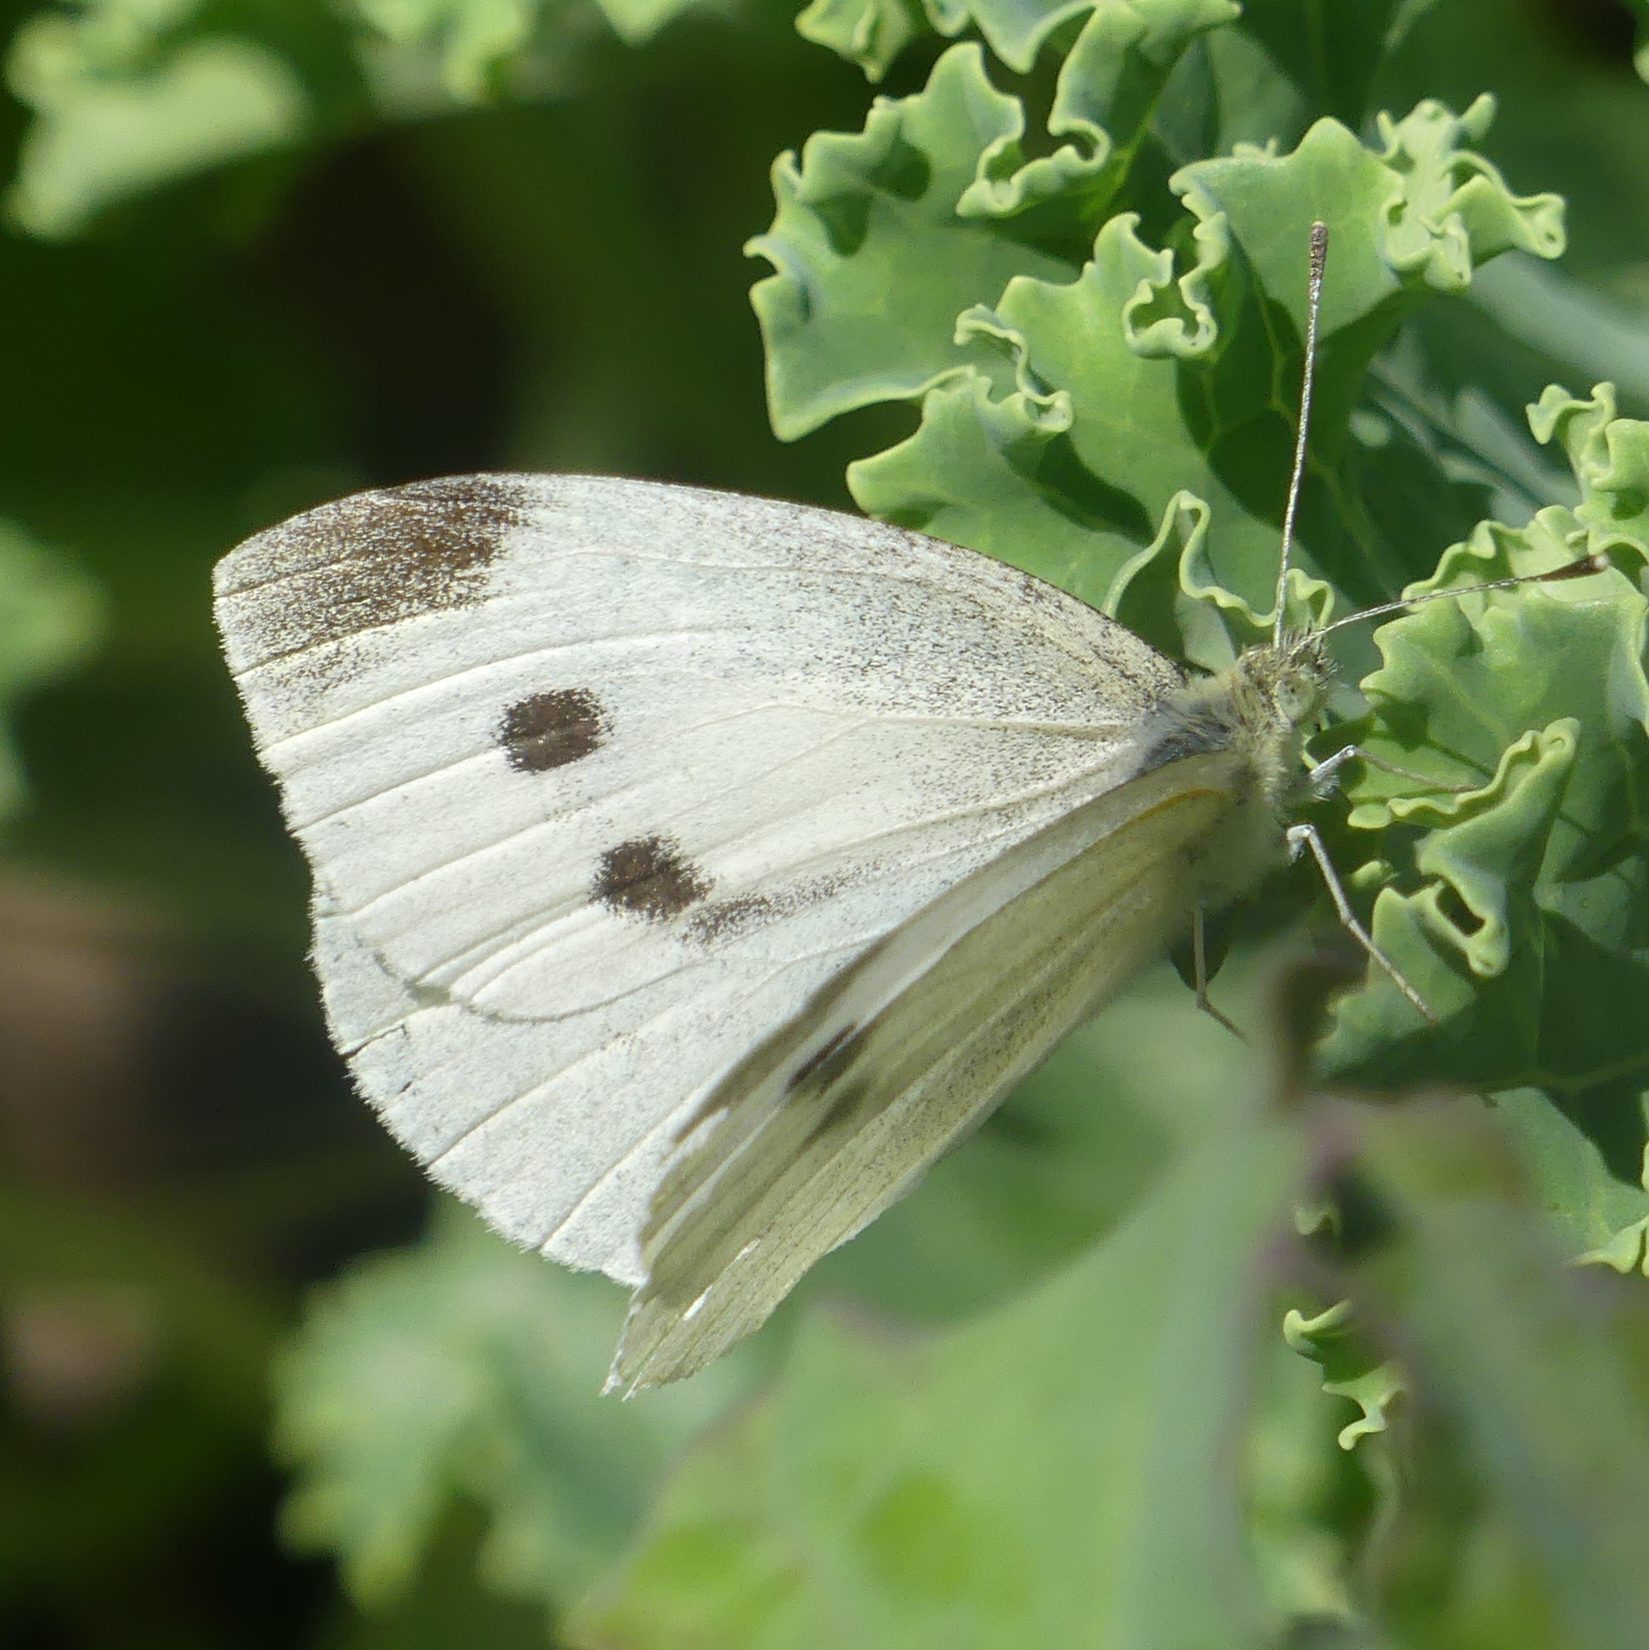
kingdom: Animalia
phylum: Arthropoda
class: Insecta
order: Lepidoptera
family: Pieridae
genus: Pieris
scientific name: Pieris rapae
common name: Small white
